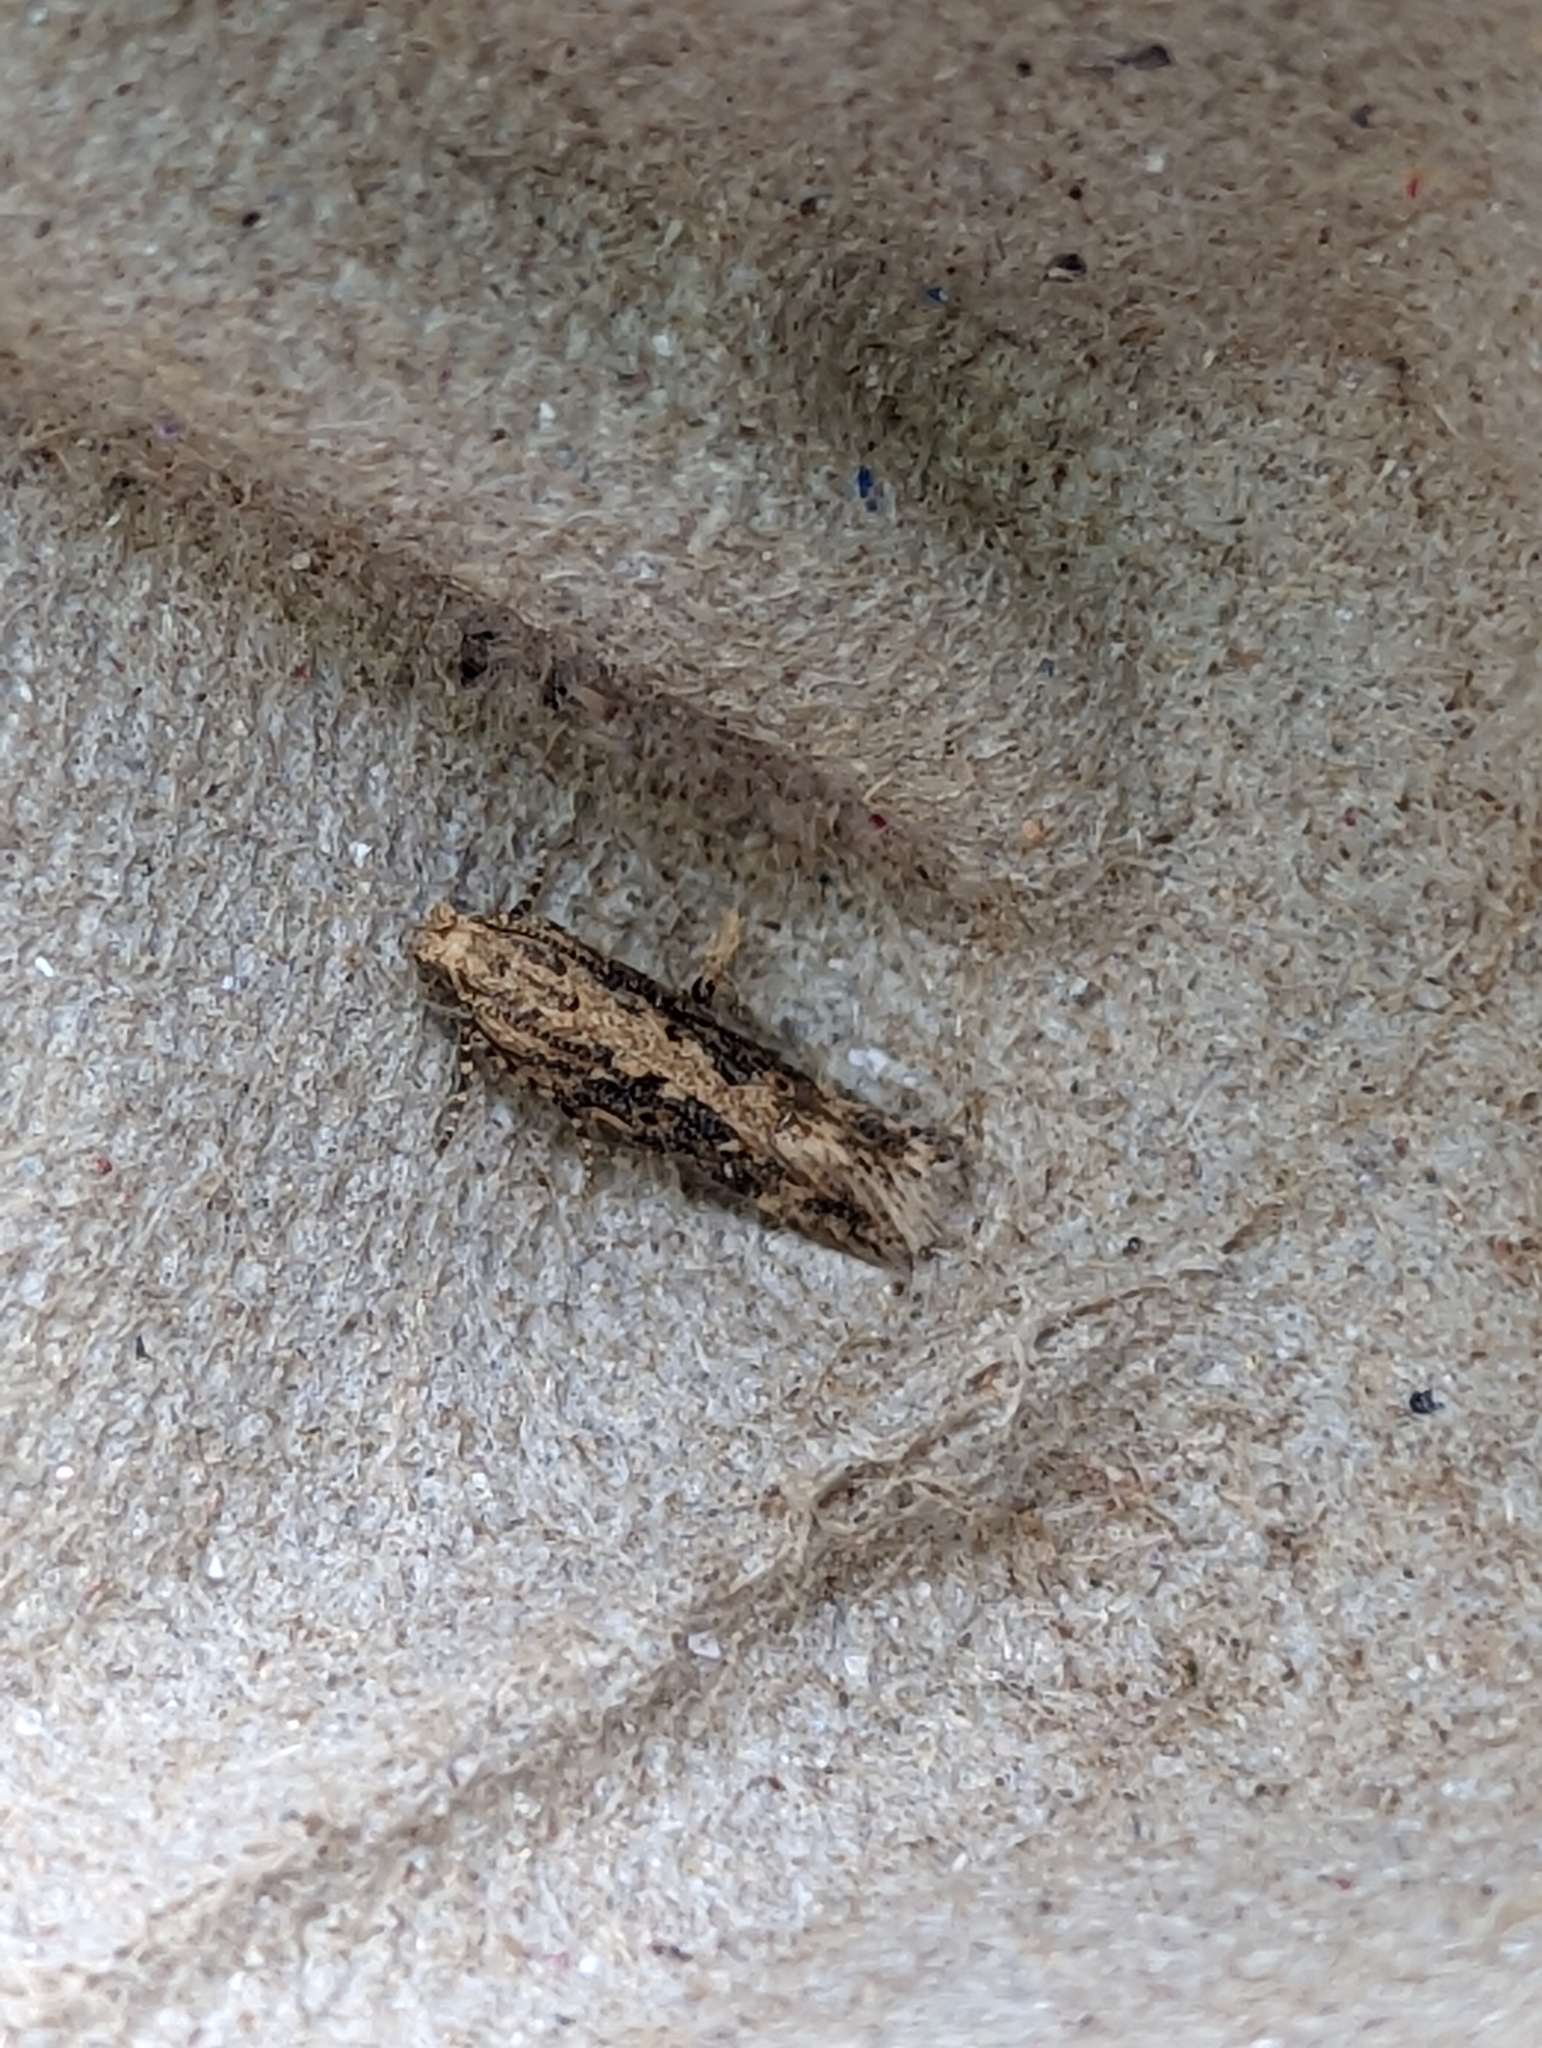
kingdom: Animalia
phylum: Arthropoda
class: Insecta
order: Lepidoptera
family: Gelechiidae
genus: Scrobipalpa
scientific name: Scrobipalpa ocellatella
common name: Beet moth
